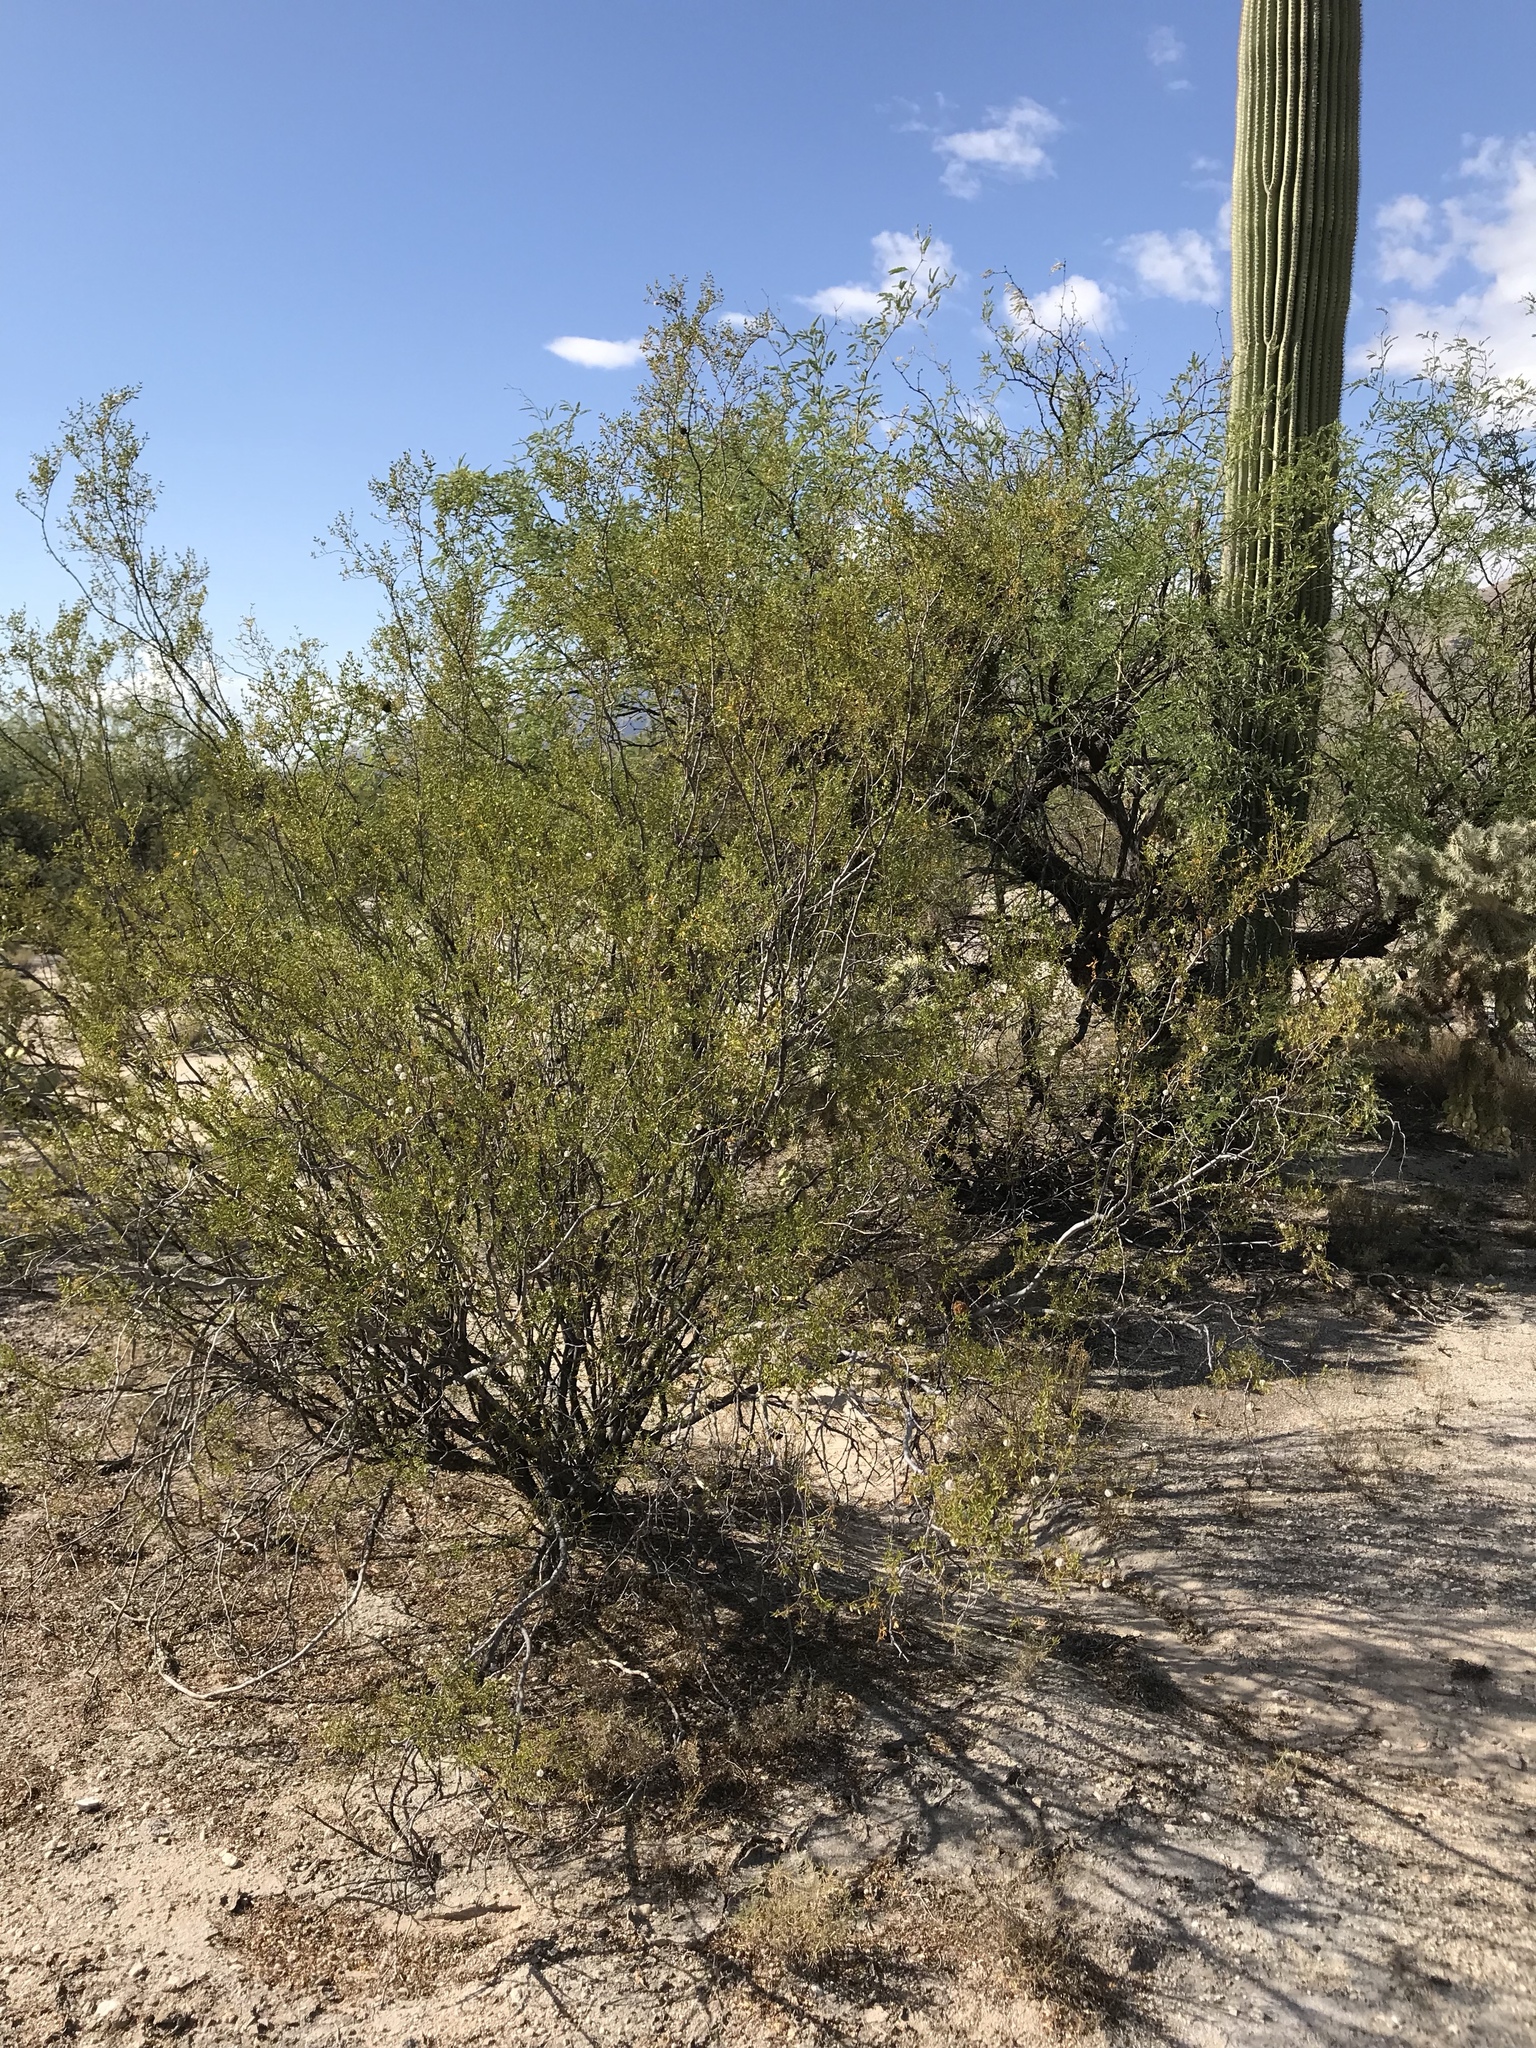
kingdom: Plantae
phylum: Tracheophyta
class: Magnoliopsida
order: Zygophyllales
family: Zygophyllaceae
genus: Larrea
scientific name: Larrea tridentata
